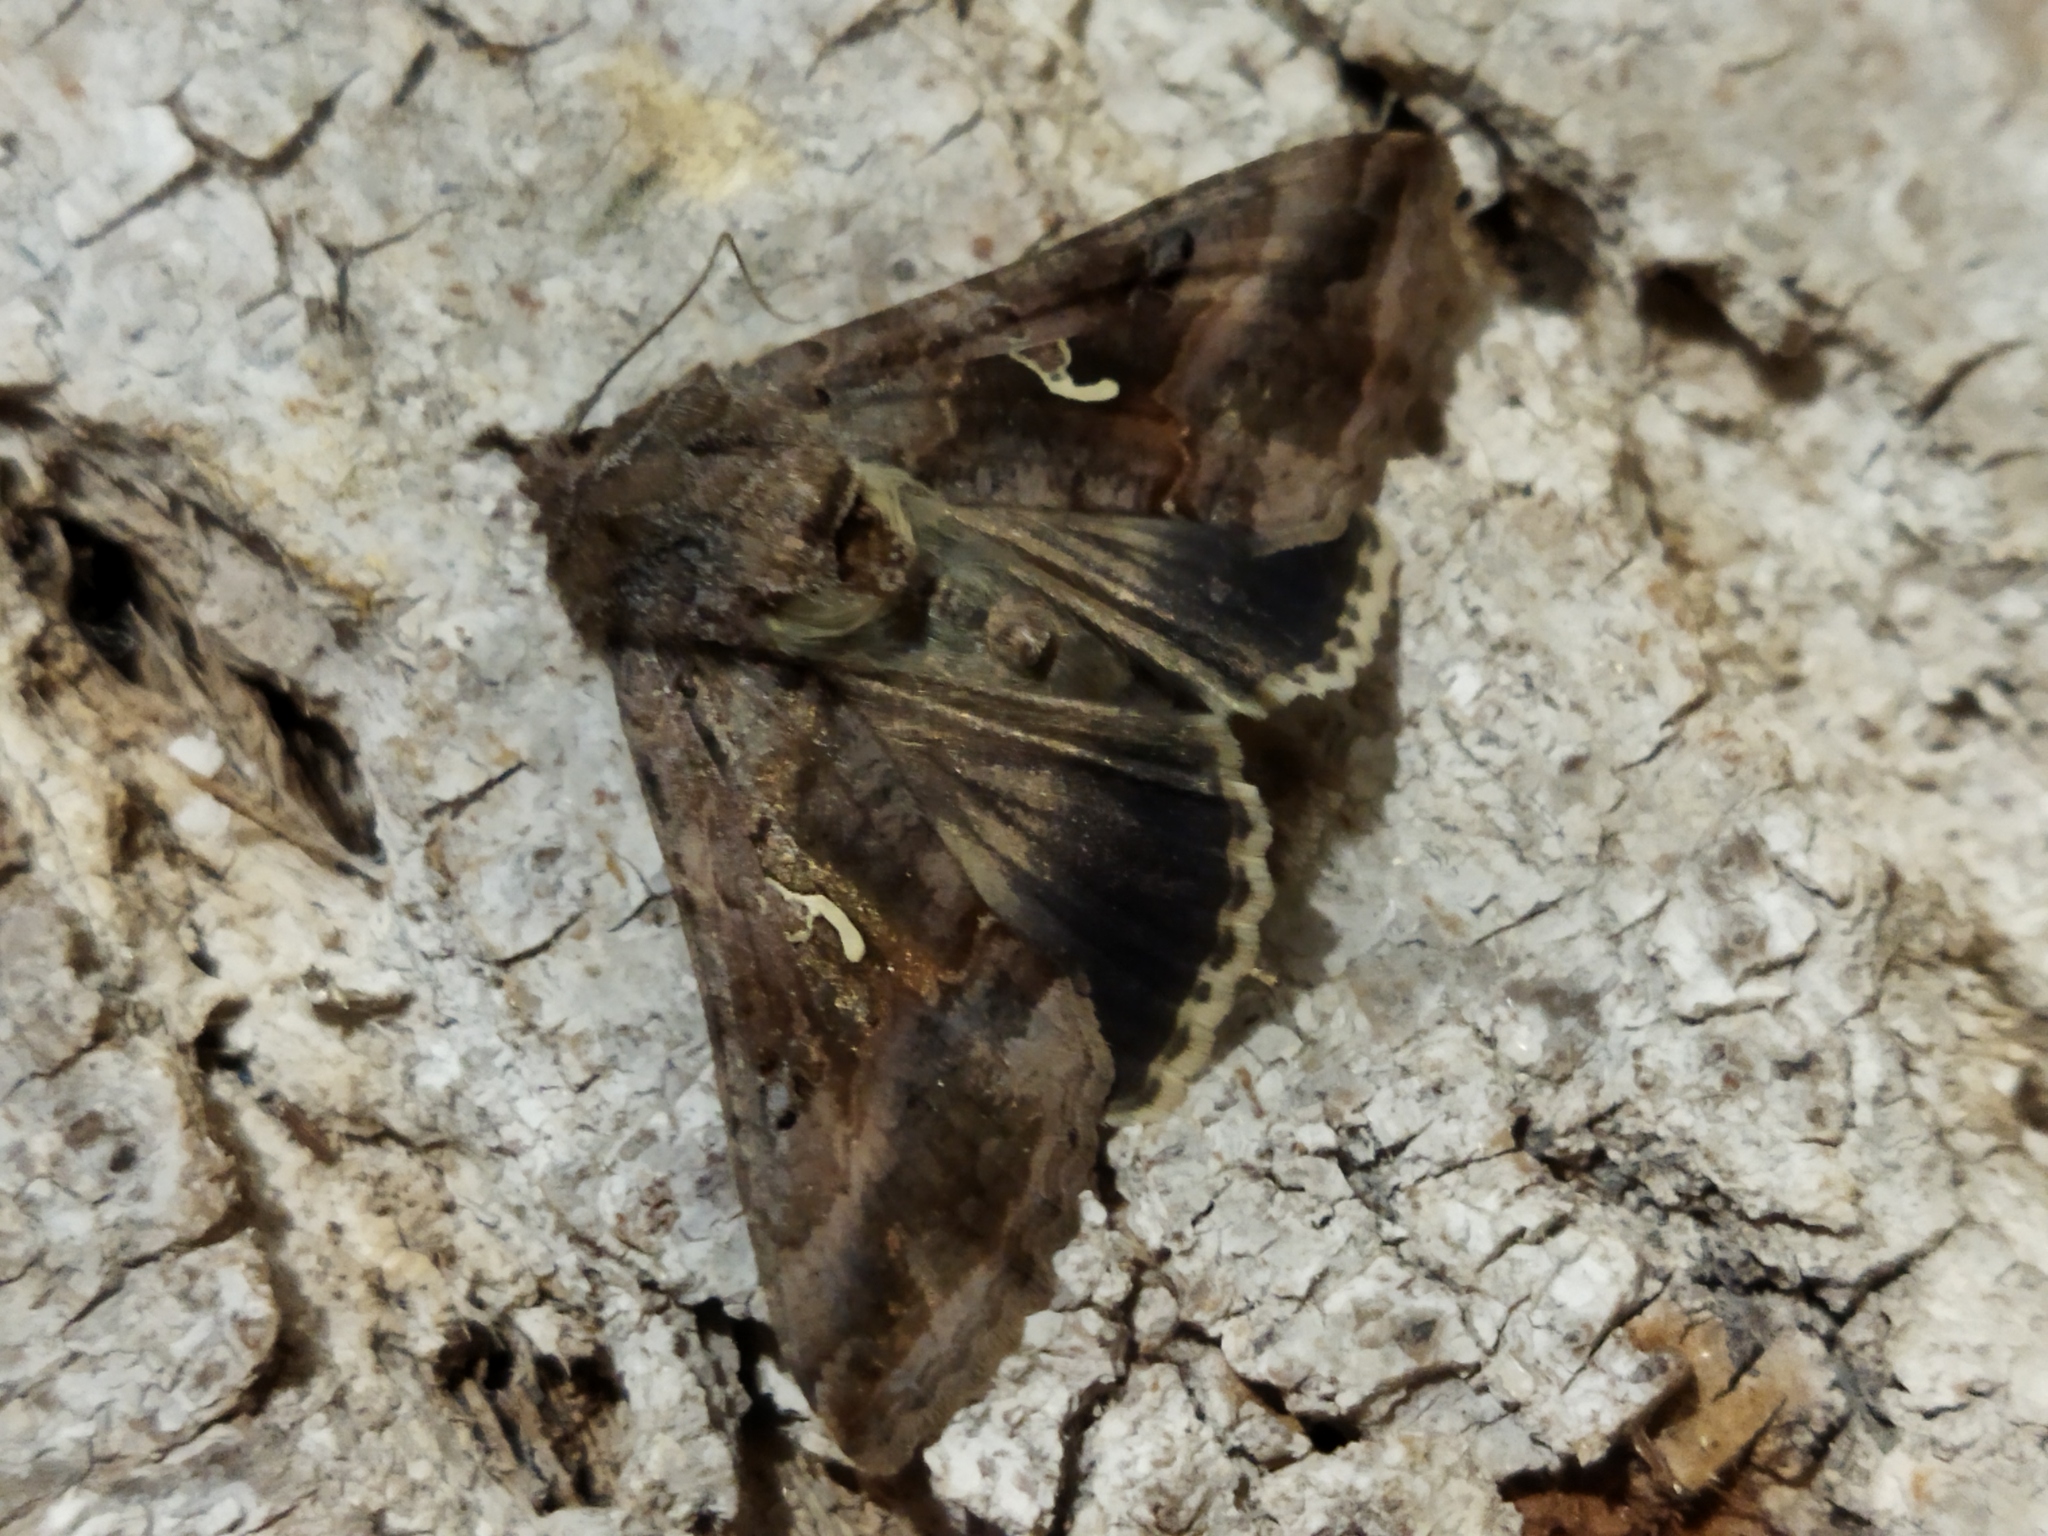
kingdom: Animalia
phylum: Arthropoda
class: Insecta
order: Lepidoptera
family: Noctuidae
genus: Autographa
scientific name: Autographa gamma
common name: Silver y
